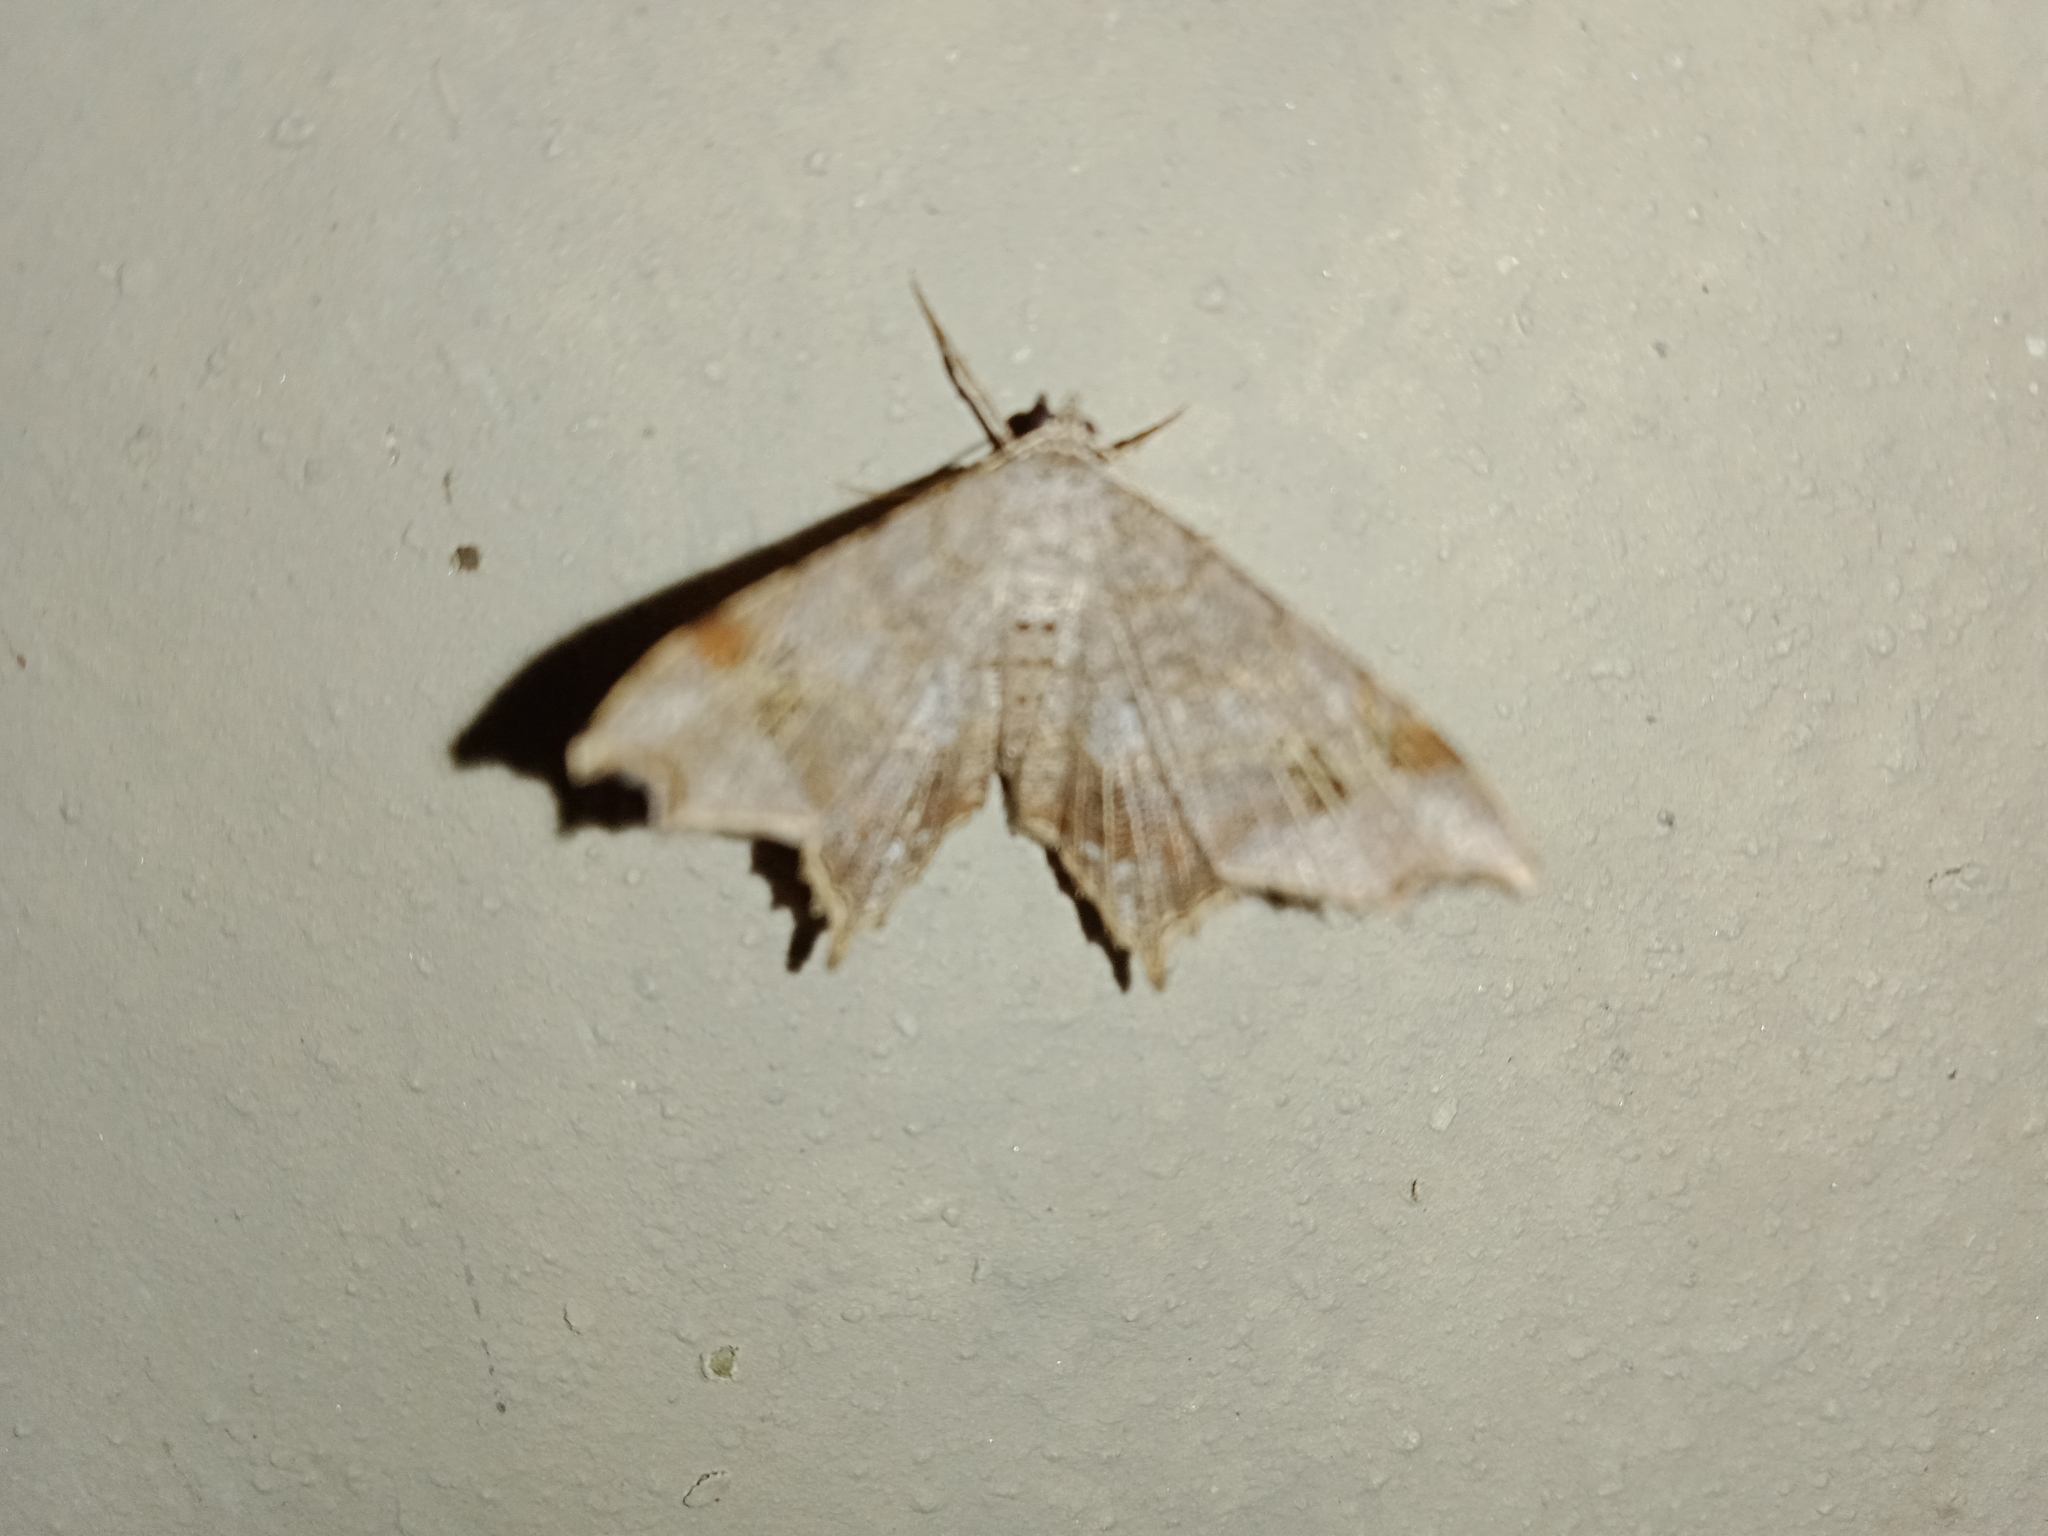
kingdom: Animalia
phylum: Arthropoda
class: Insecta
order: Lepidoptera
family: Geometridae
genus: Chiasmia
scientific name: Chiasmia emersaria
